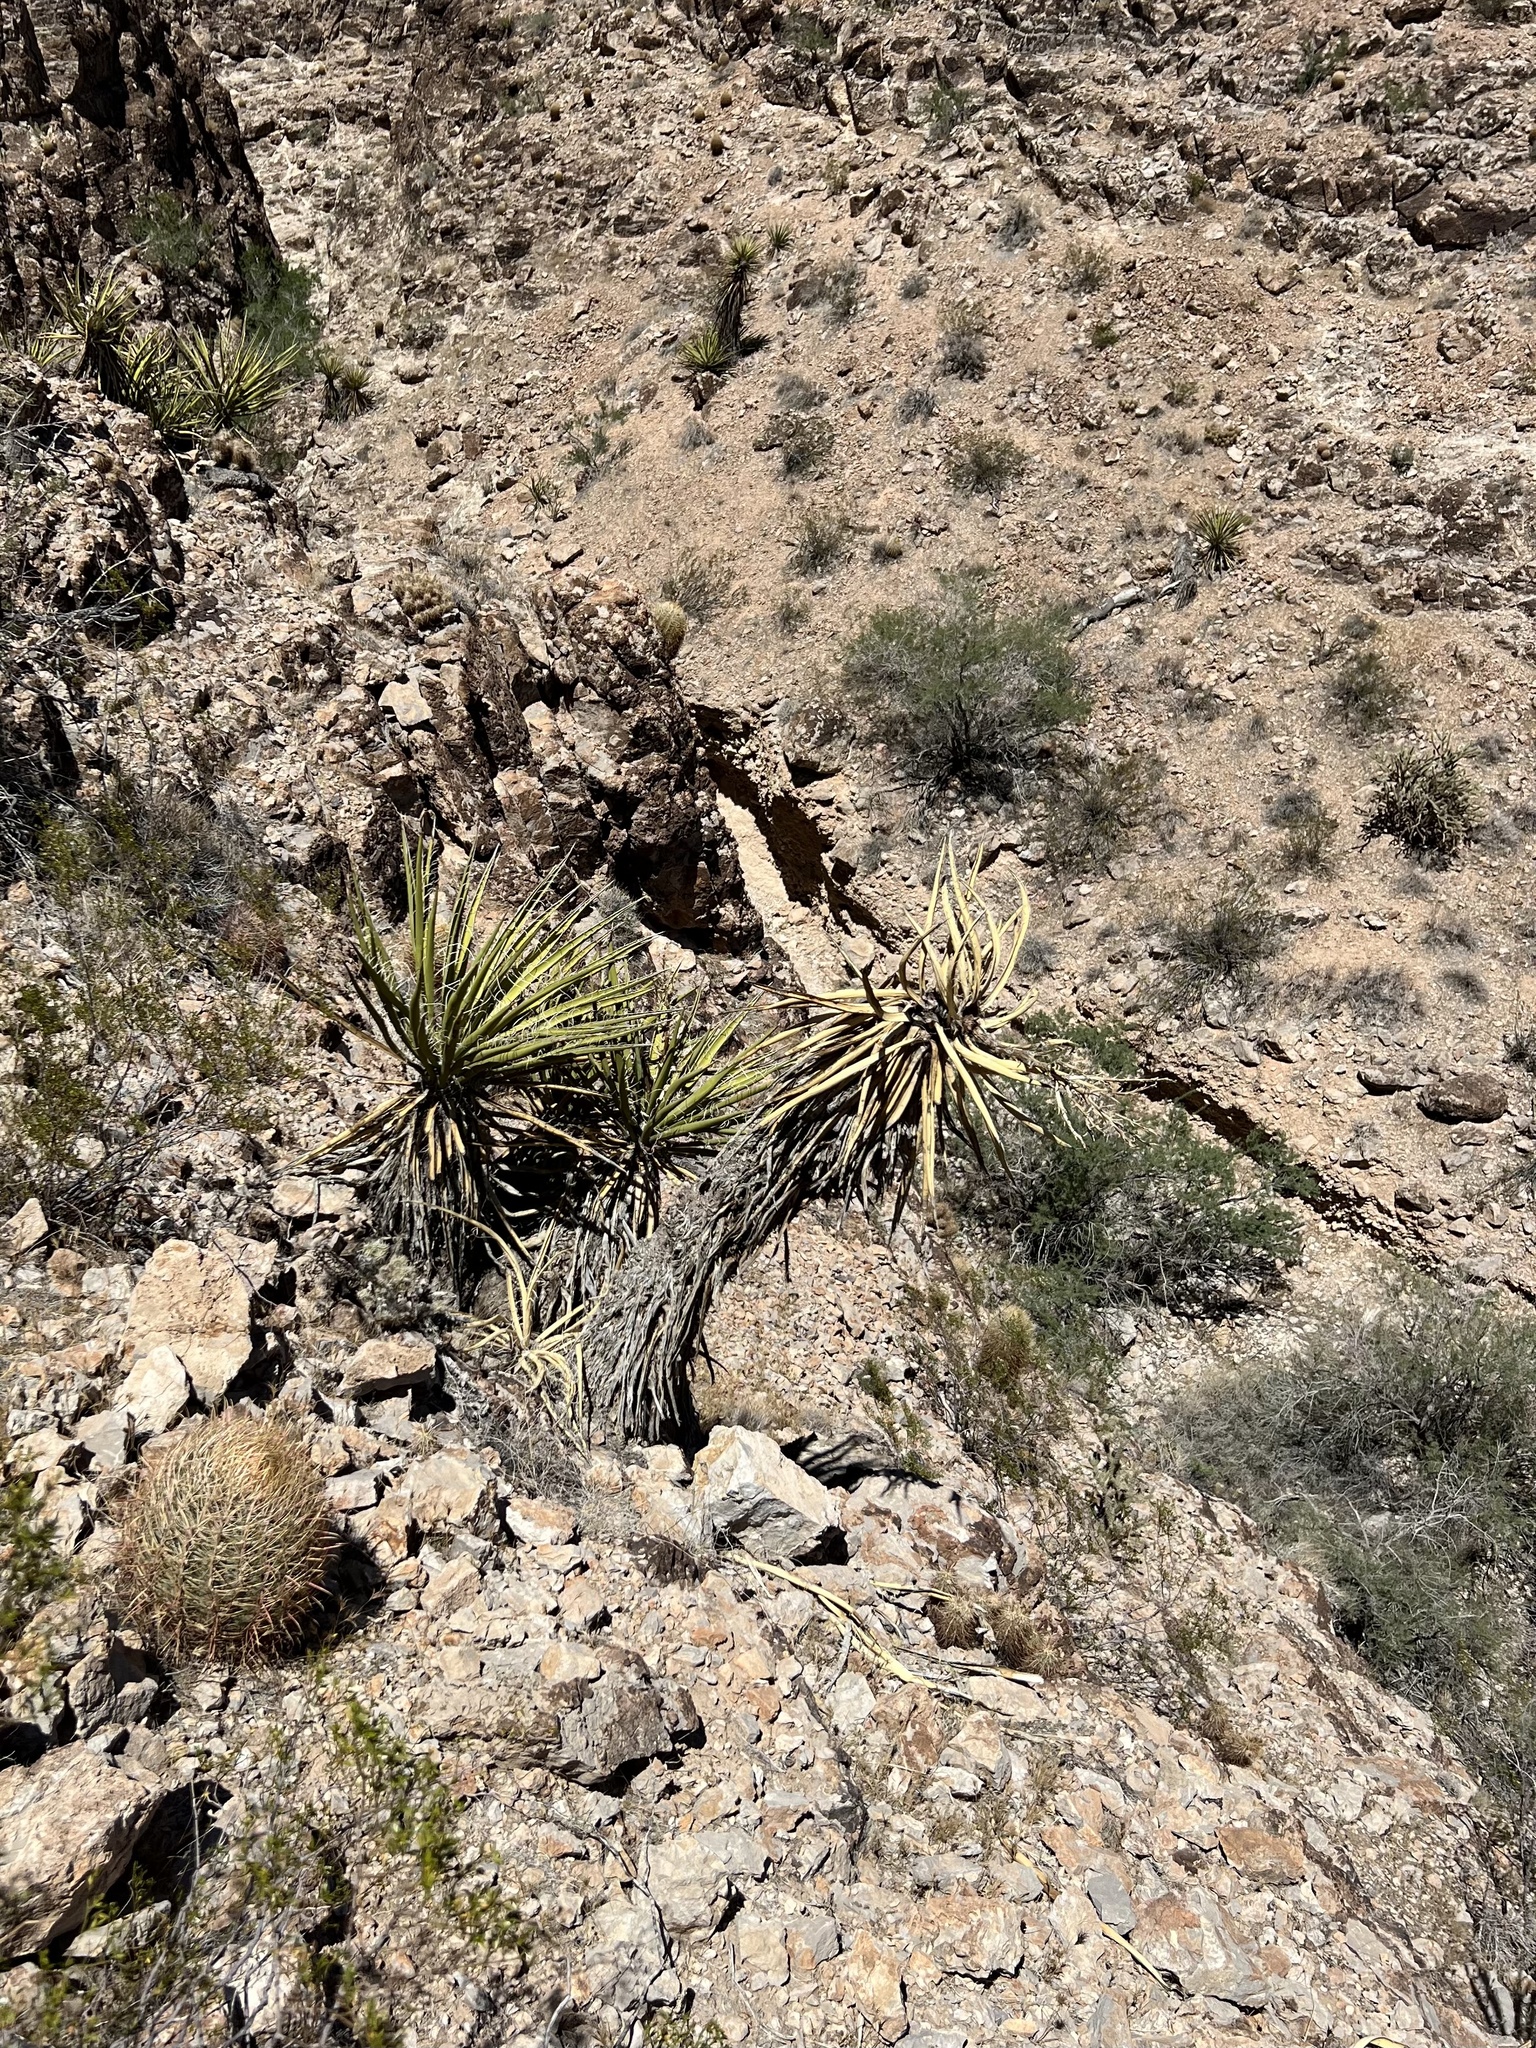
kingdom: Plantae
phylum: Tracheophyta
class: Liliopsida
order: Asparagales
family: Asparagaceae
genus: Yucca
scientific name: Yucca schidigera
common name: Mojave yucca
